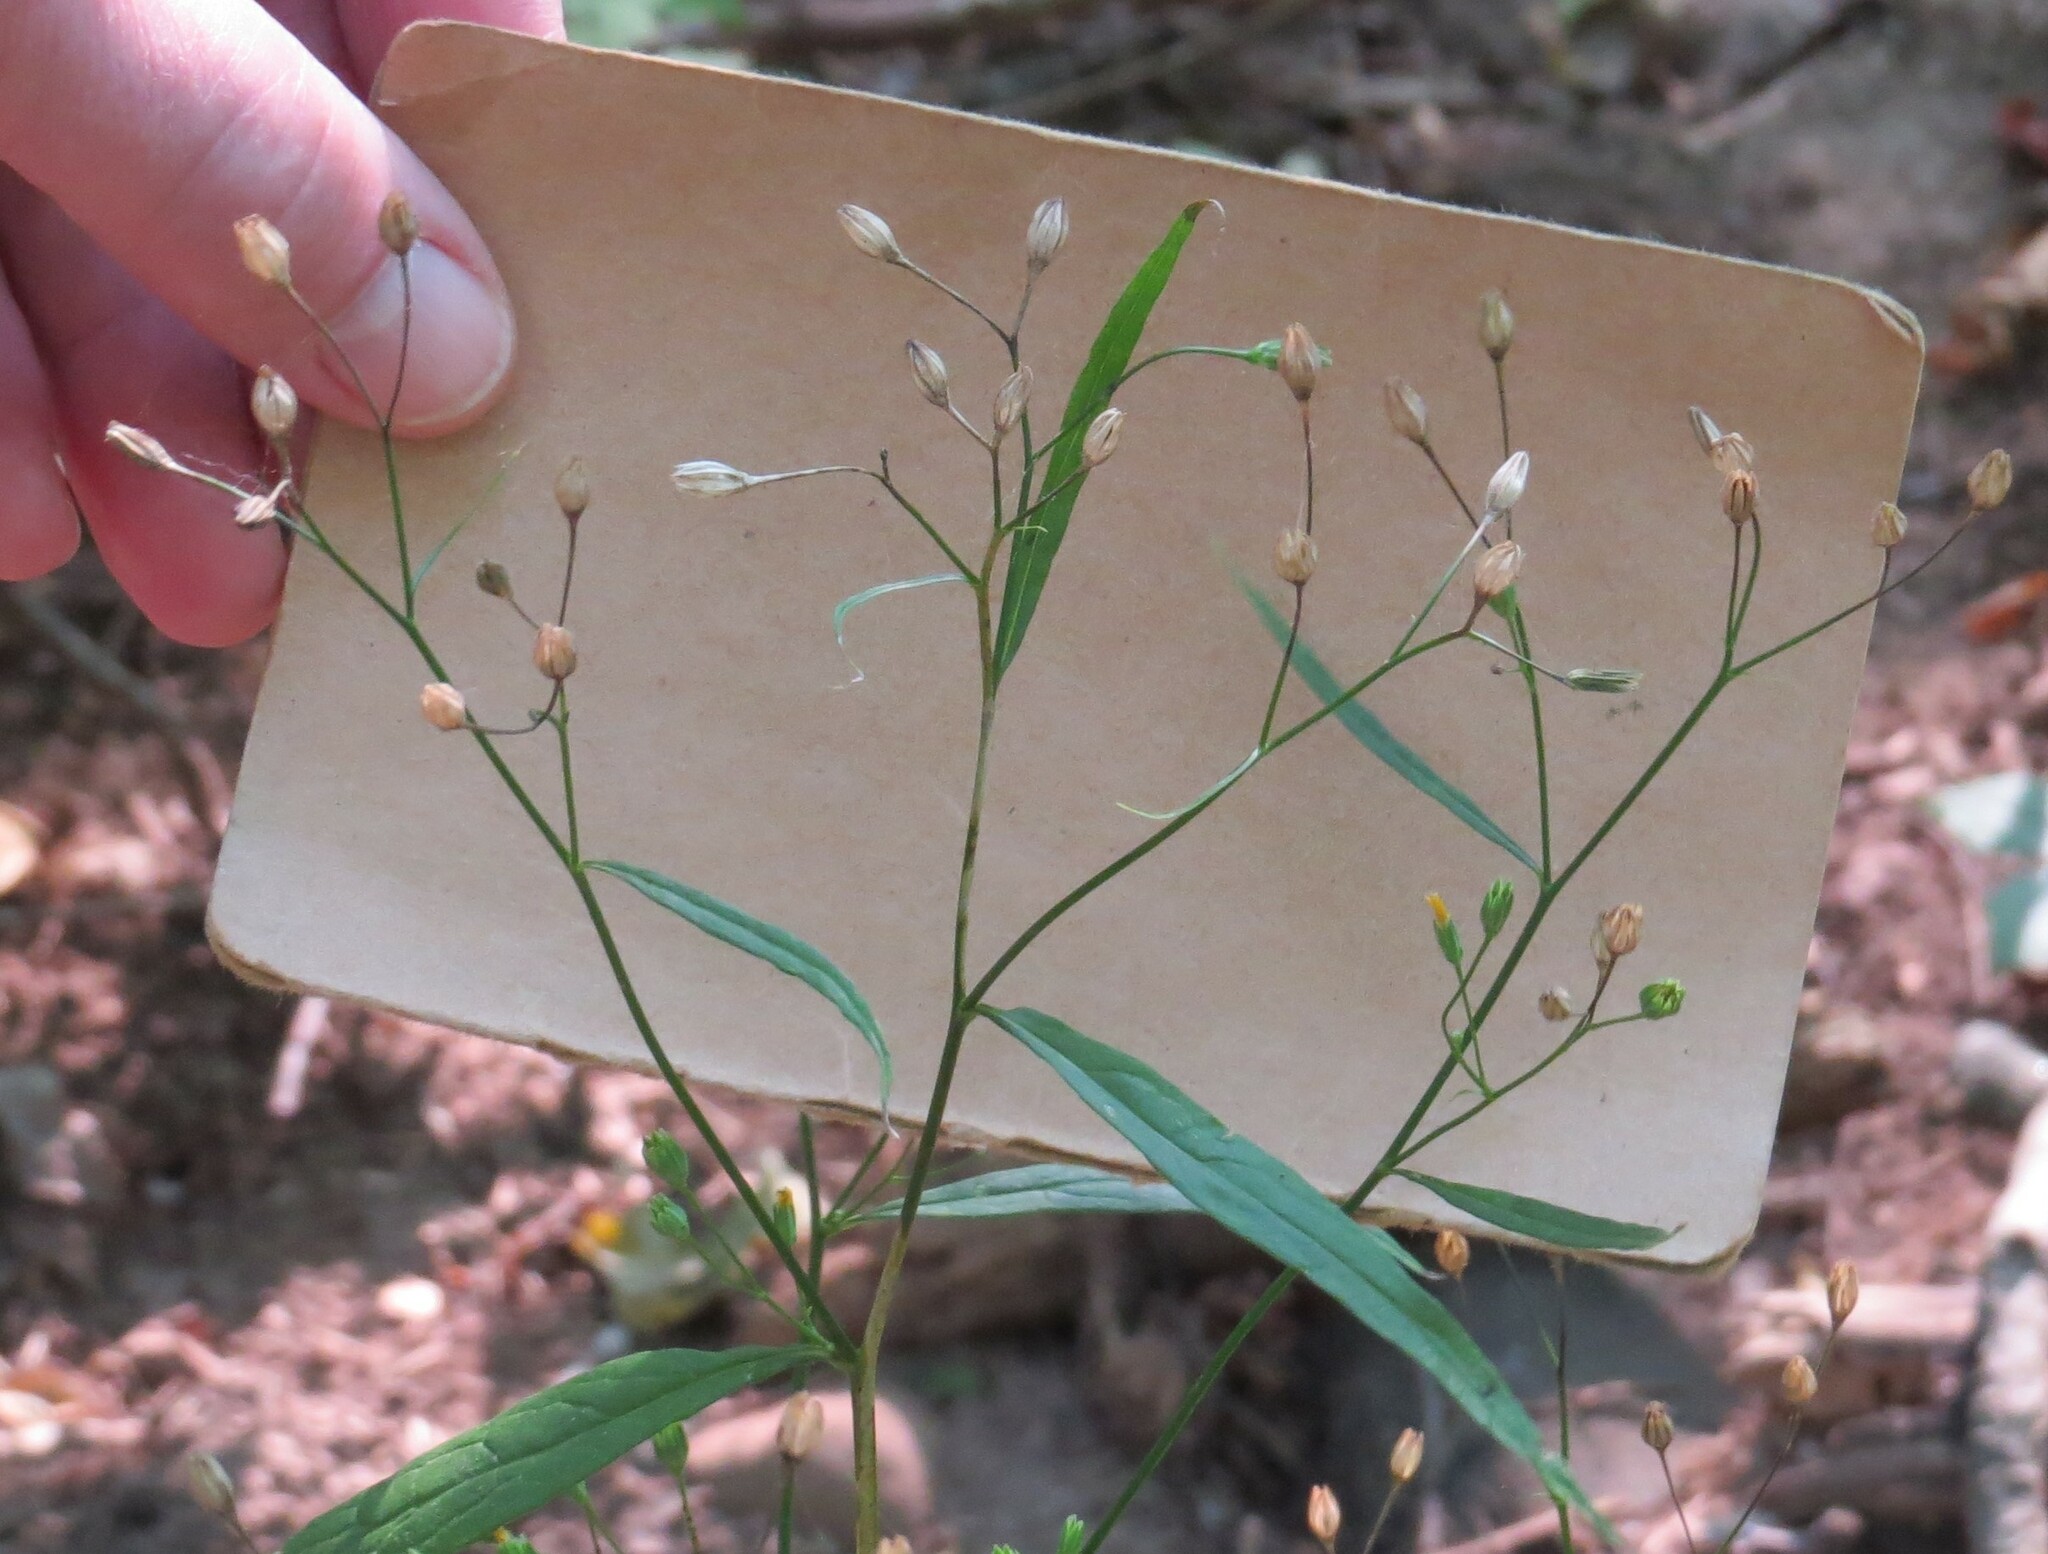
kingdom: Plantae
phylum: Tracheophyta
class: Magnoliopsida
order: Asterales
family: Asteraceae
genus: Lapsana
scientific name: Lapsana communis
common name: Nipplewort
